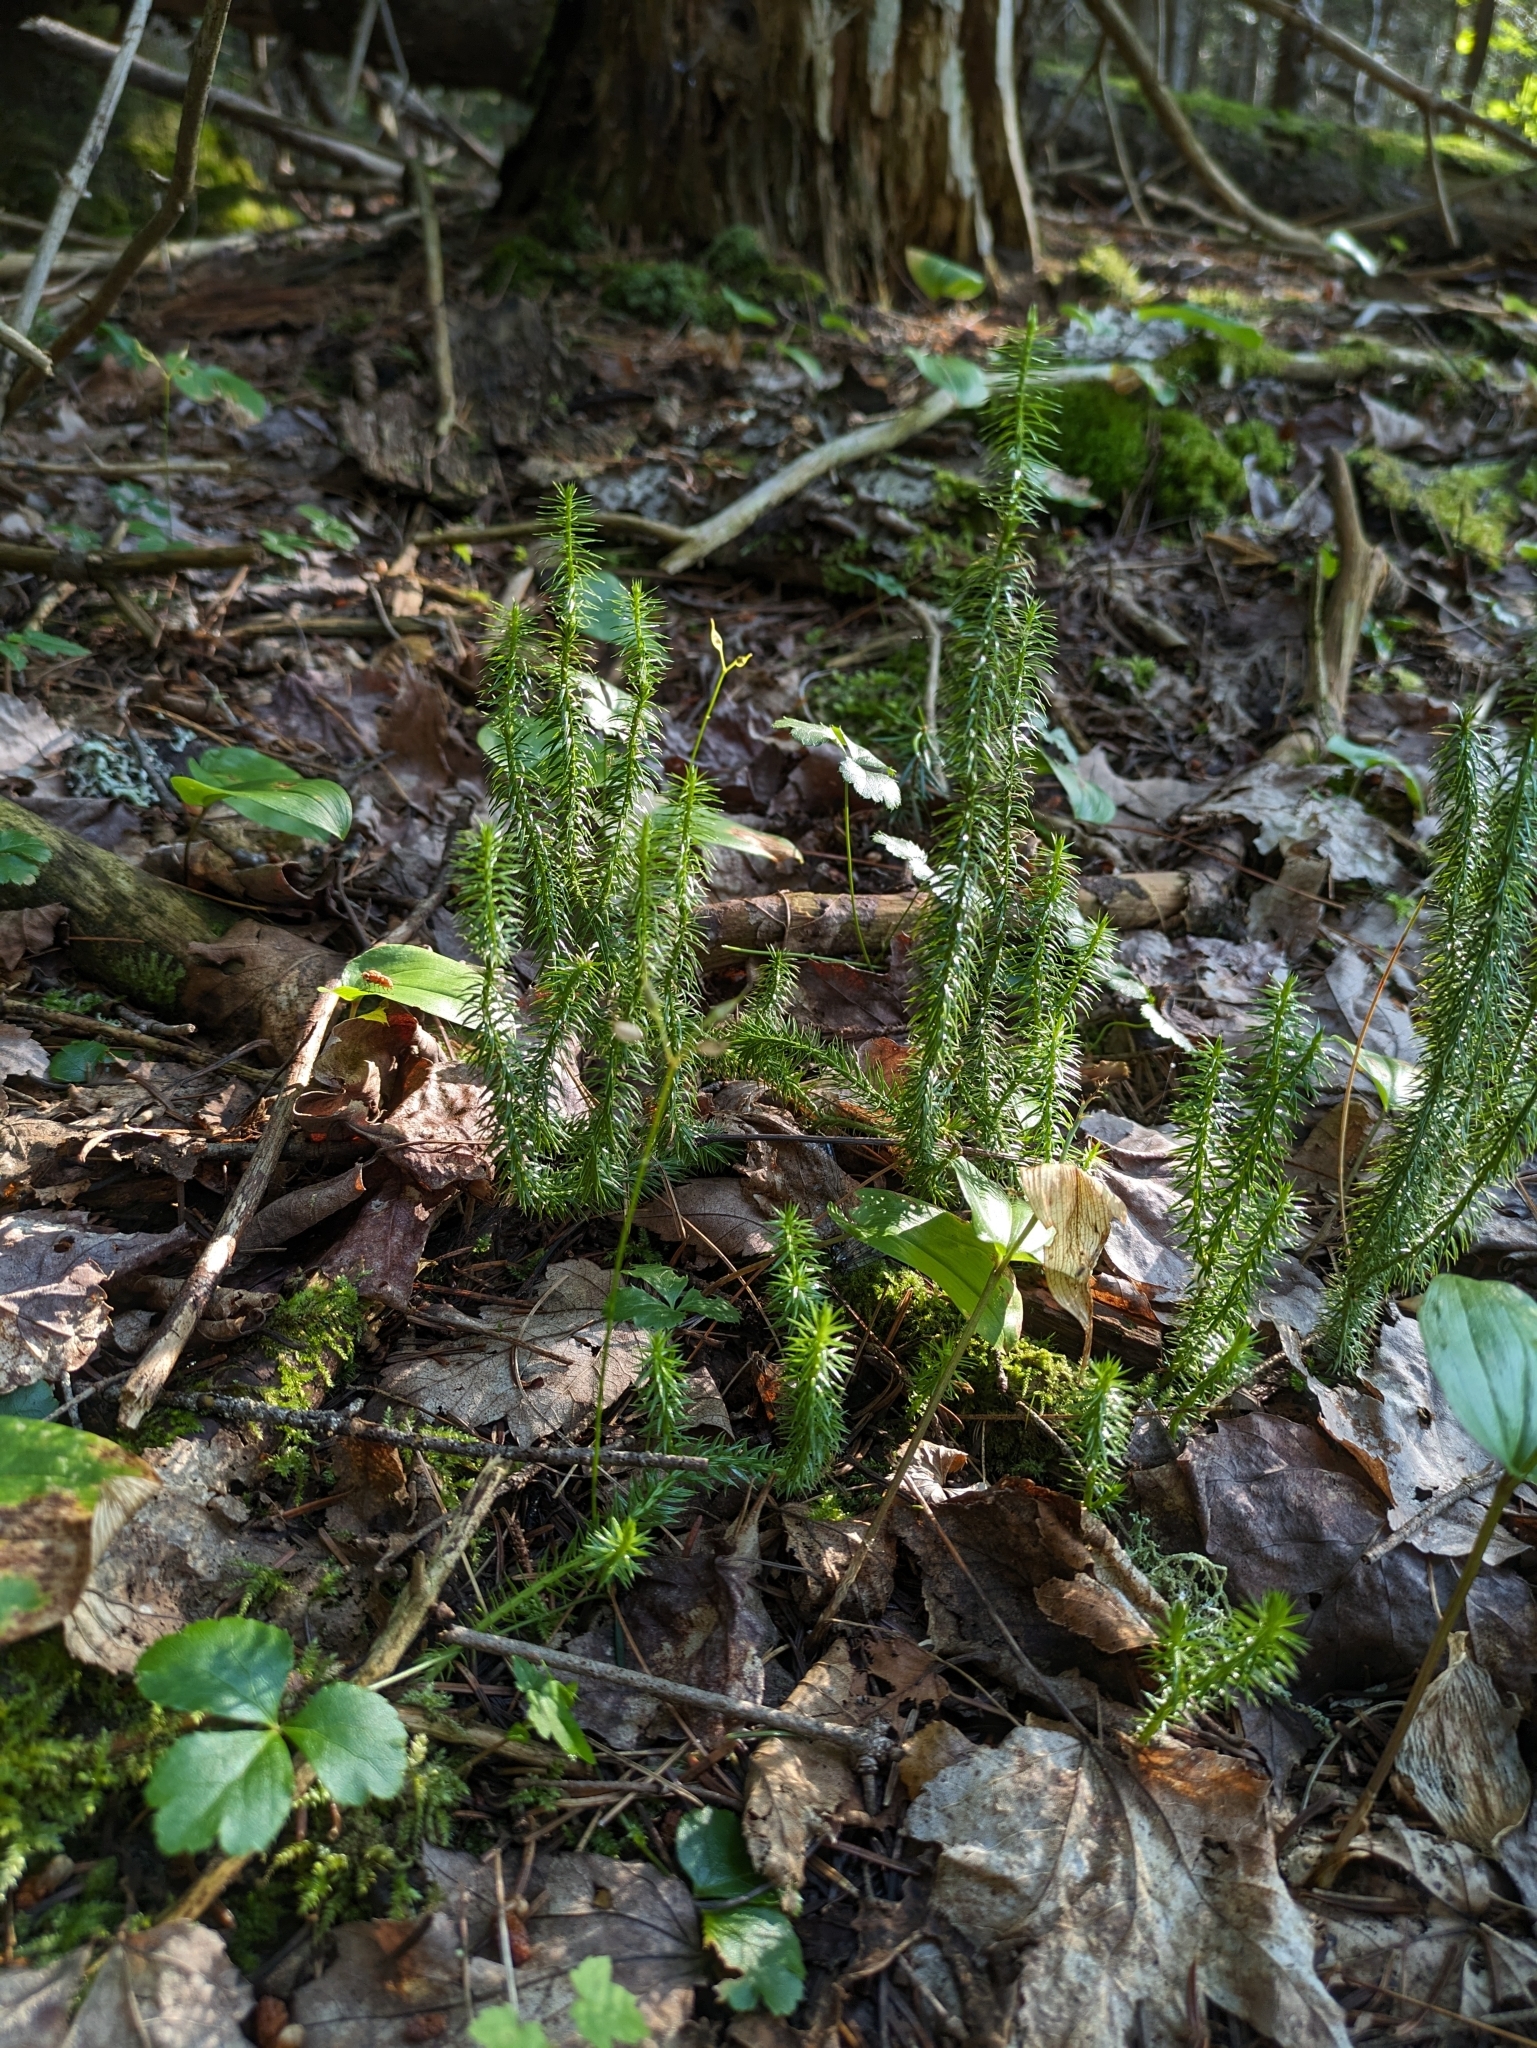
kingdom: Plantae
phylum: Tracheophyta
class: Lycopodiopsida
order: Lycopodiales
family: Lycopodiaceae
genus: Spinulum
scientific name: Spinulum annotinum
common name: Interrupted club-moss
